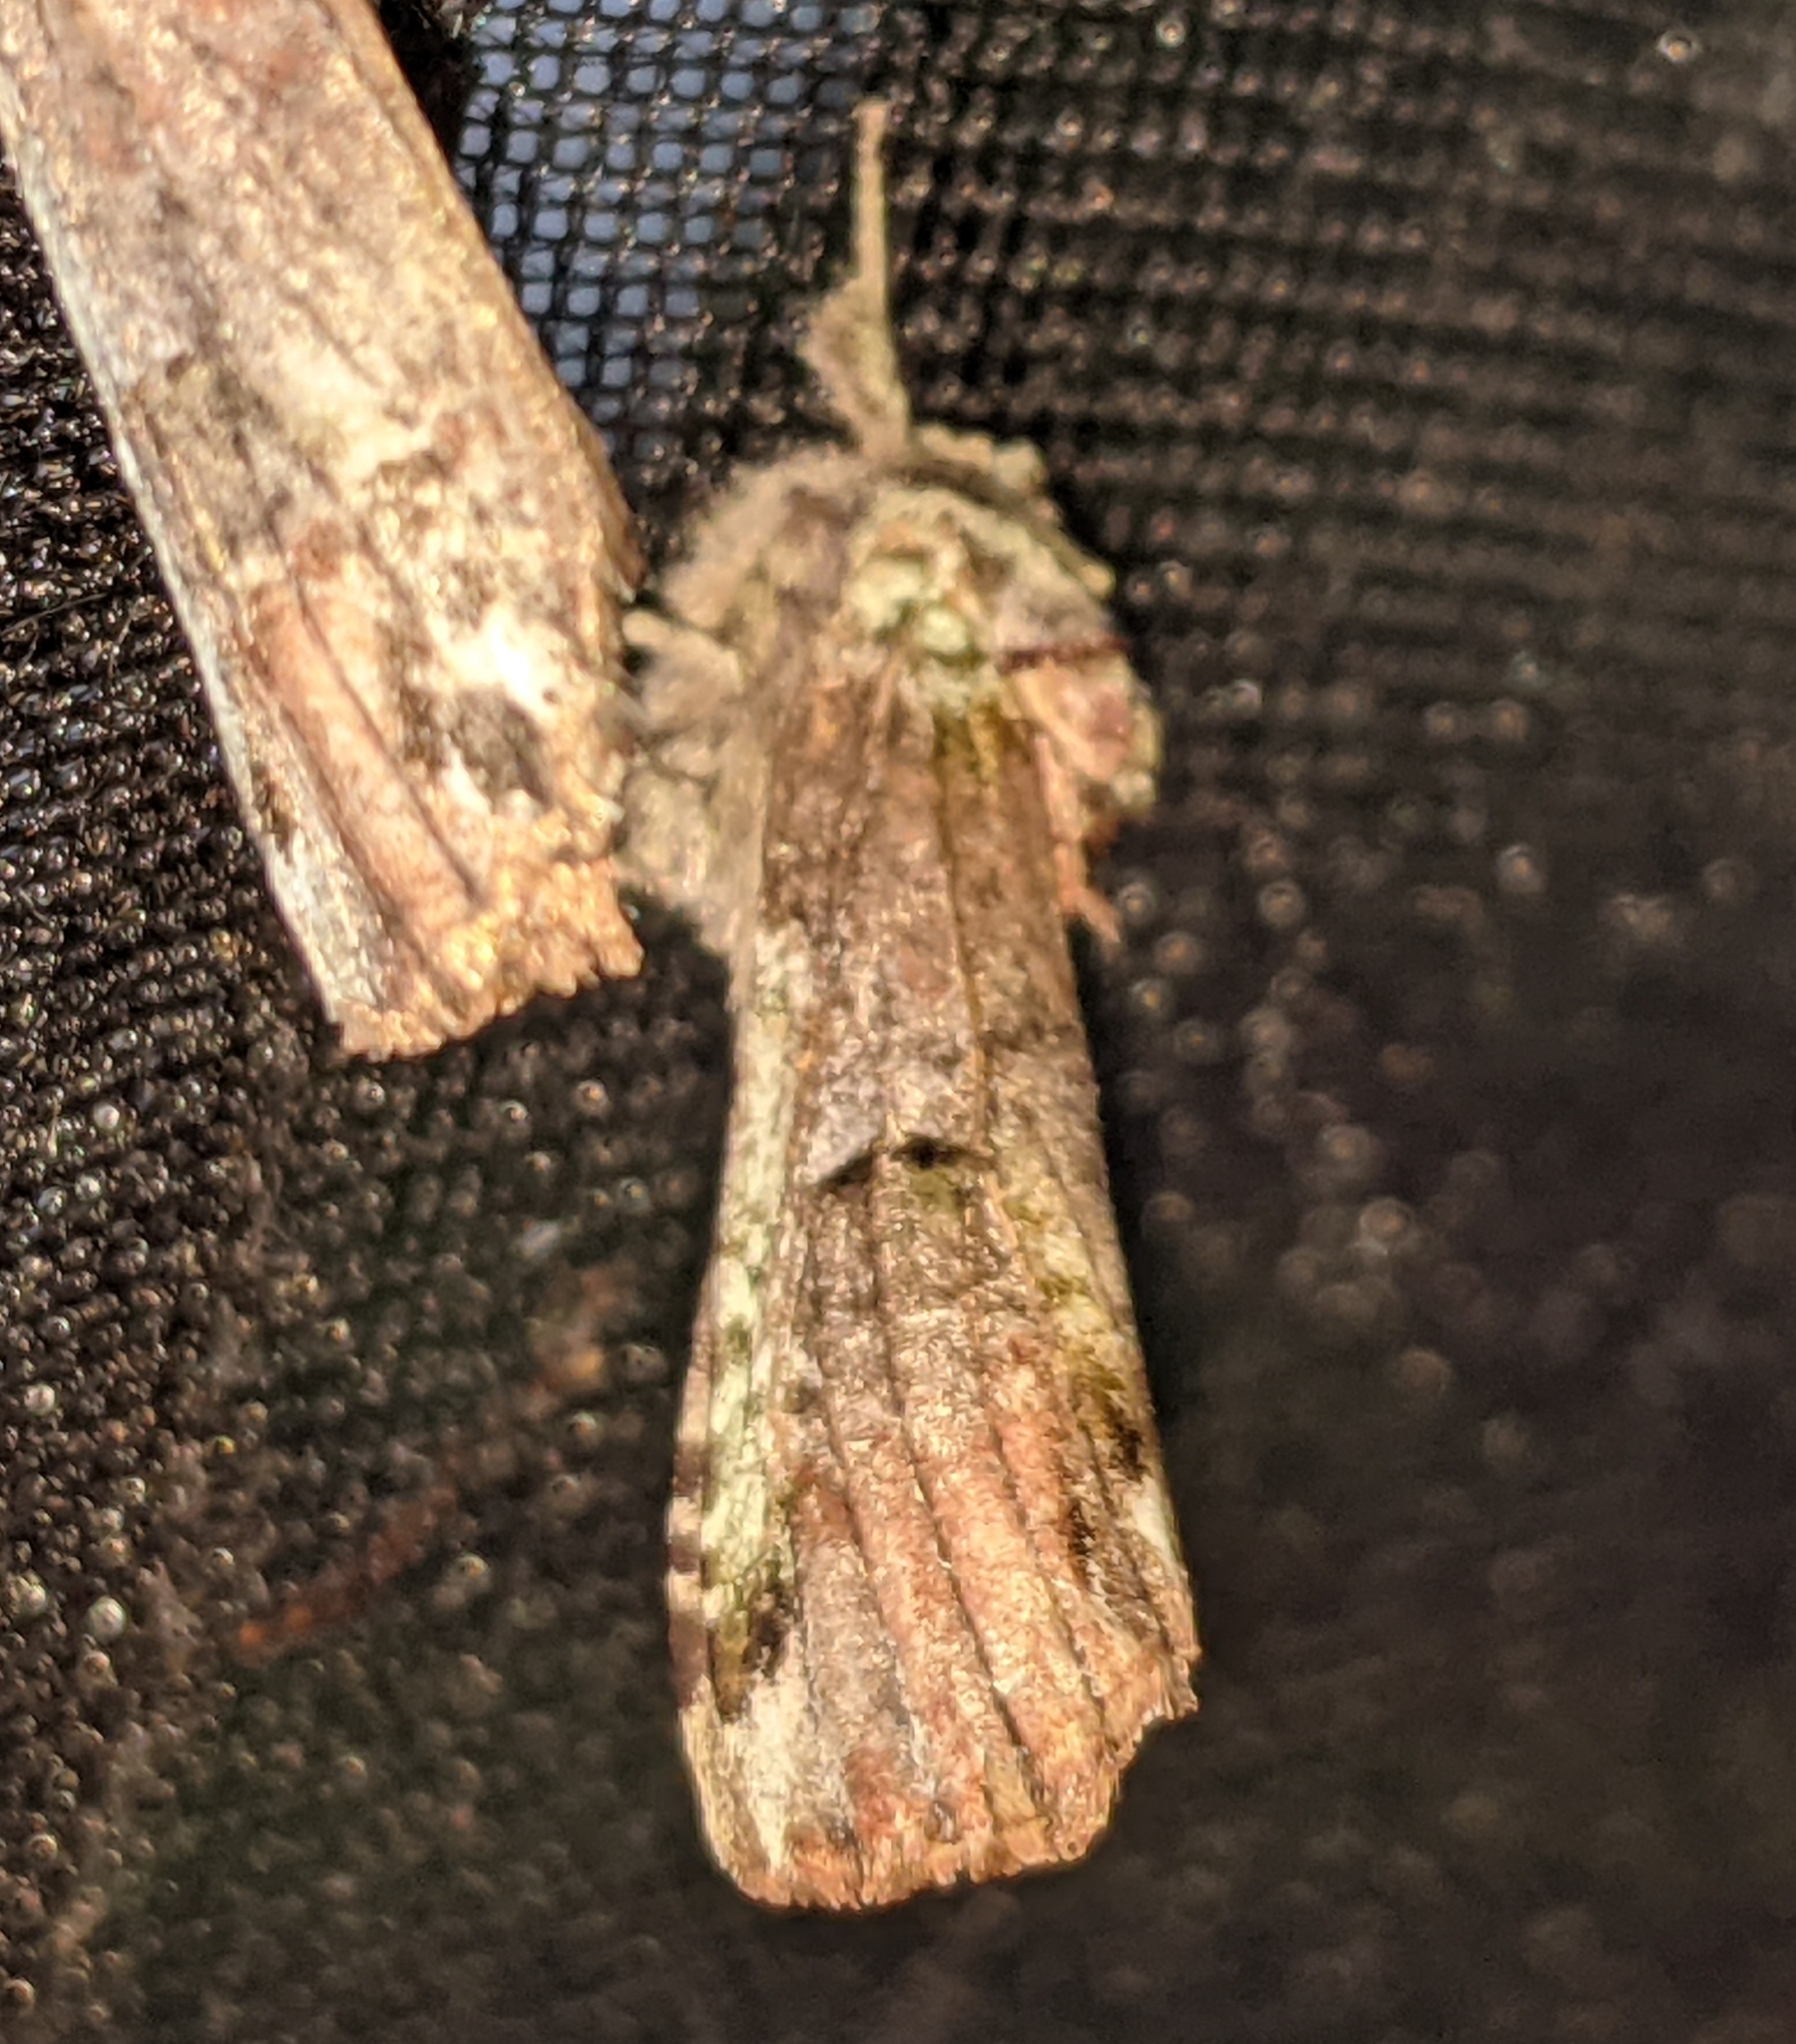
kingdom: Animalia
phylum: Arthropoda
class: Insecta
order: Lepidoptera
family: Notodontidae
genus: Schizura
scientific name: Schizura
